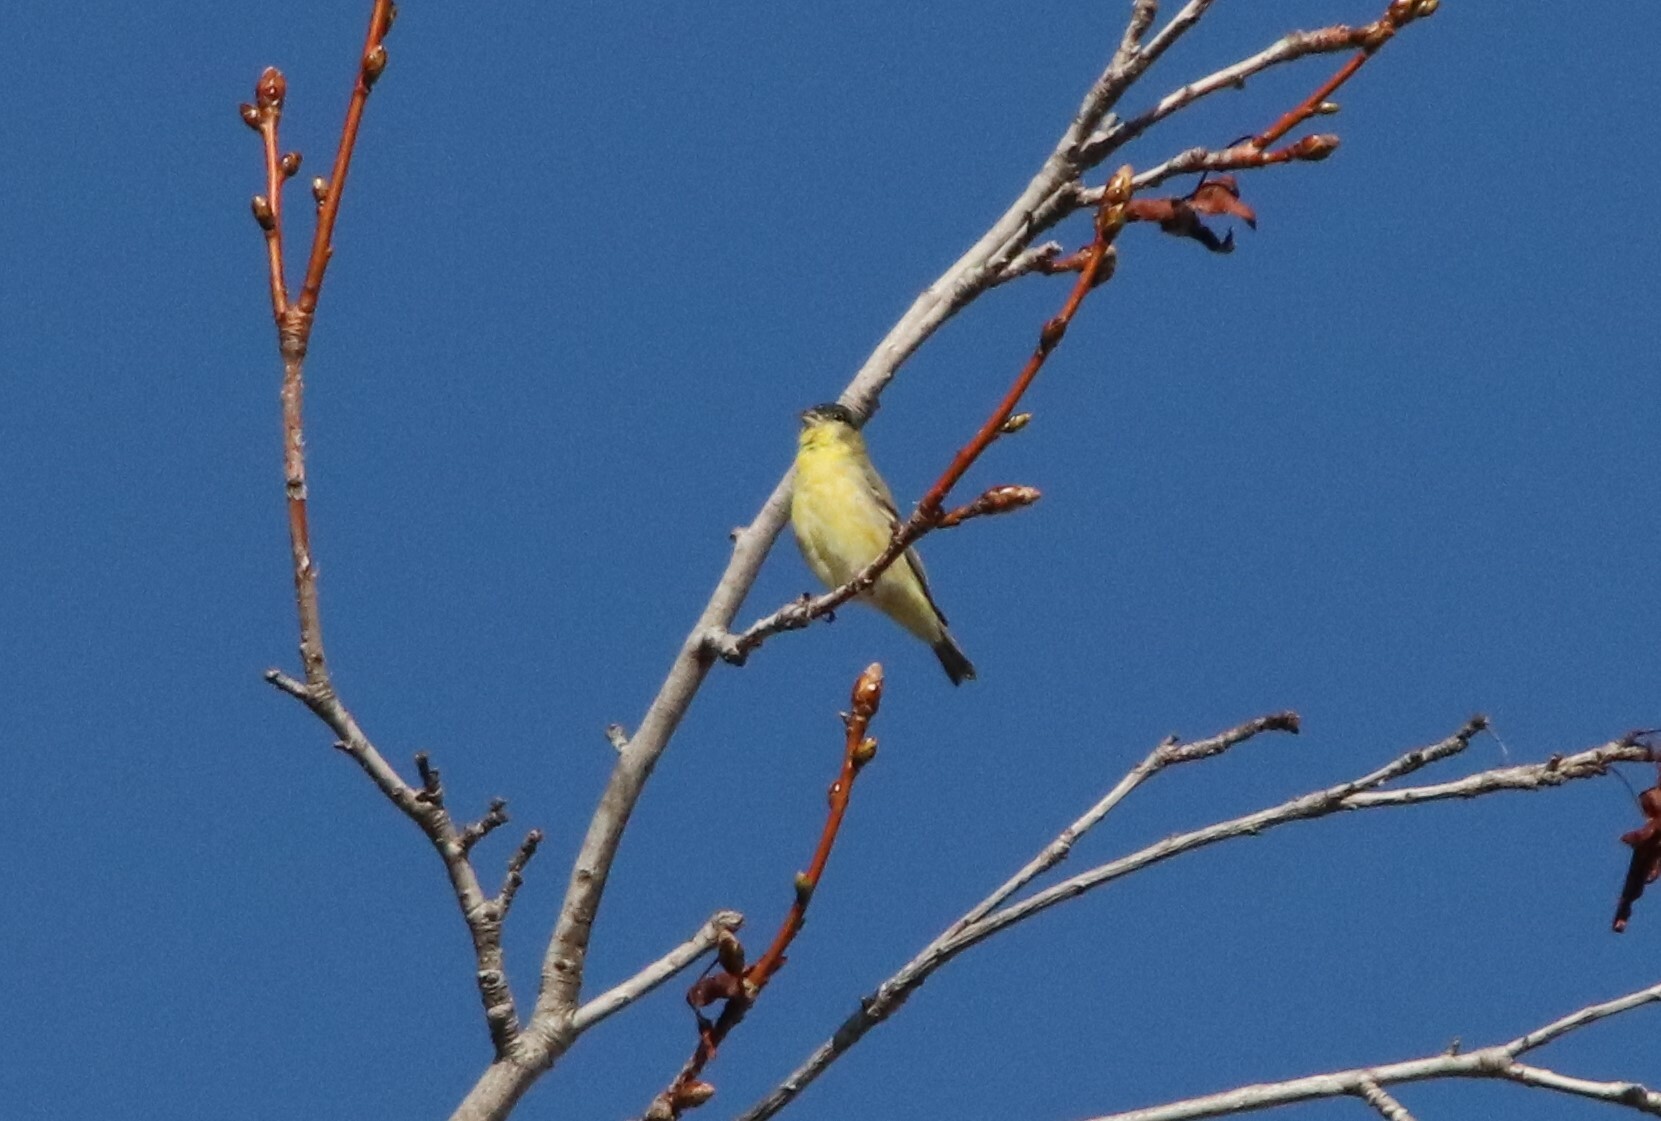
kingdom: Animalia
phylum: Chordata
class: Aves
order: Passeriformes
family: Fringillidae
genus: Spinus
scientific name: Spinus psaltria
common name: Lesser goldfinch
